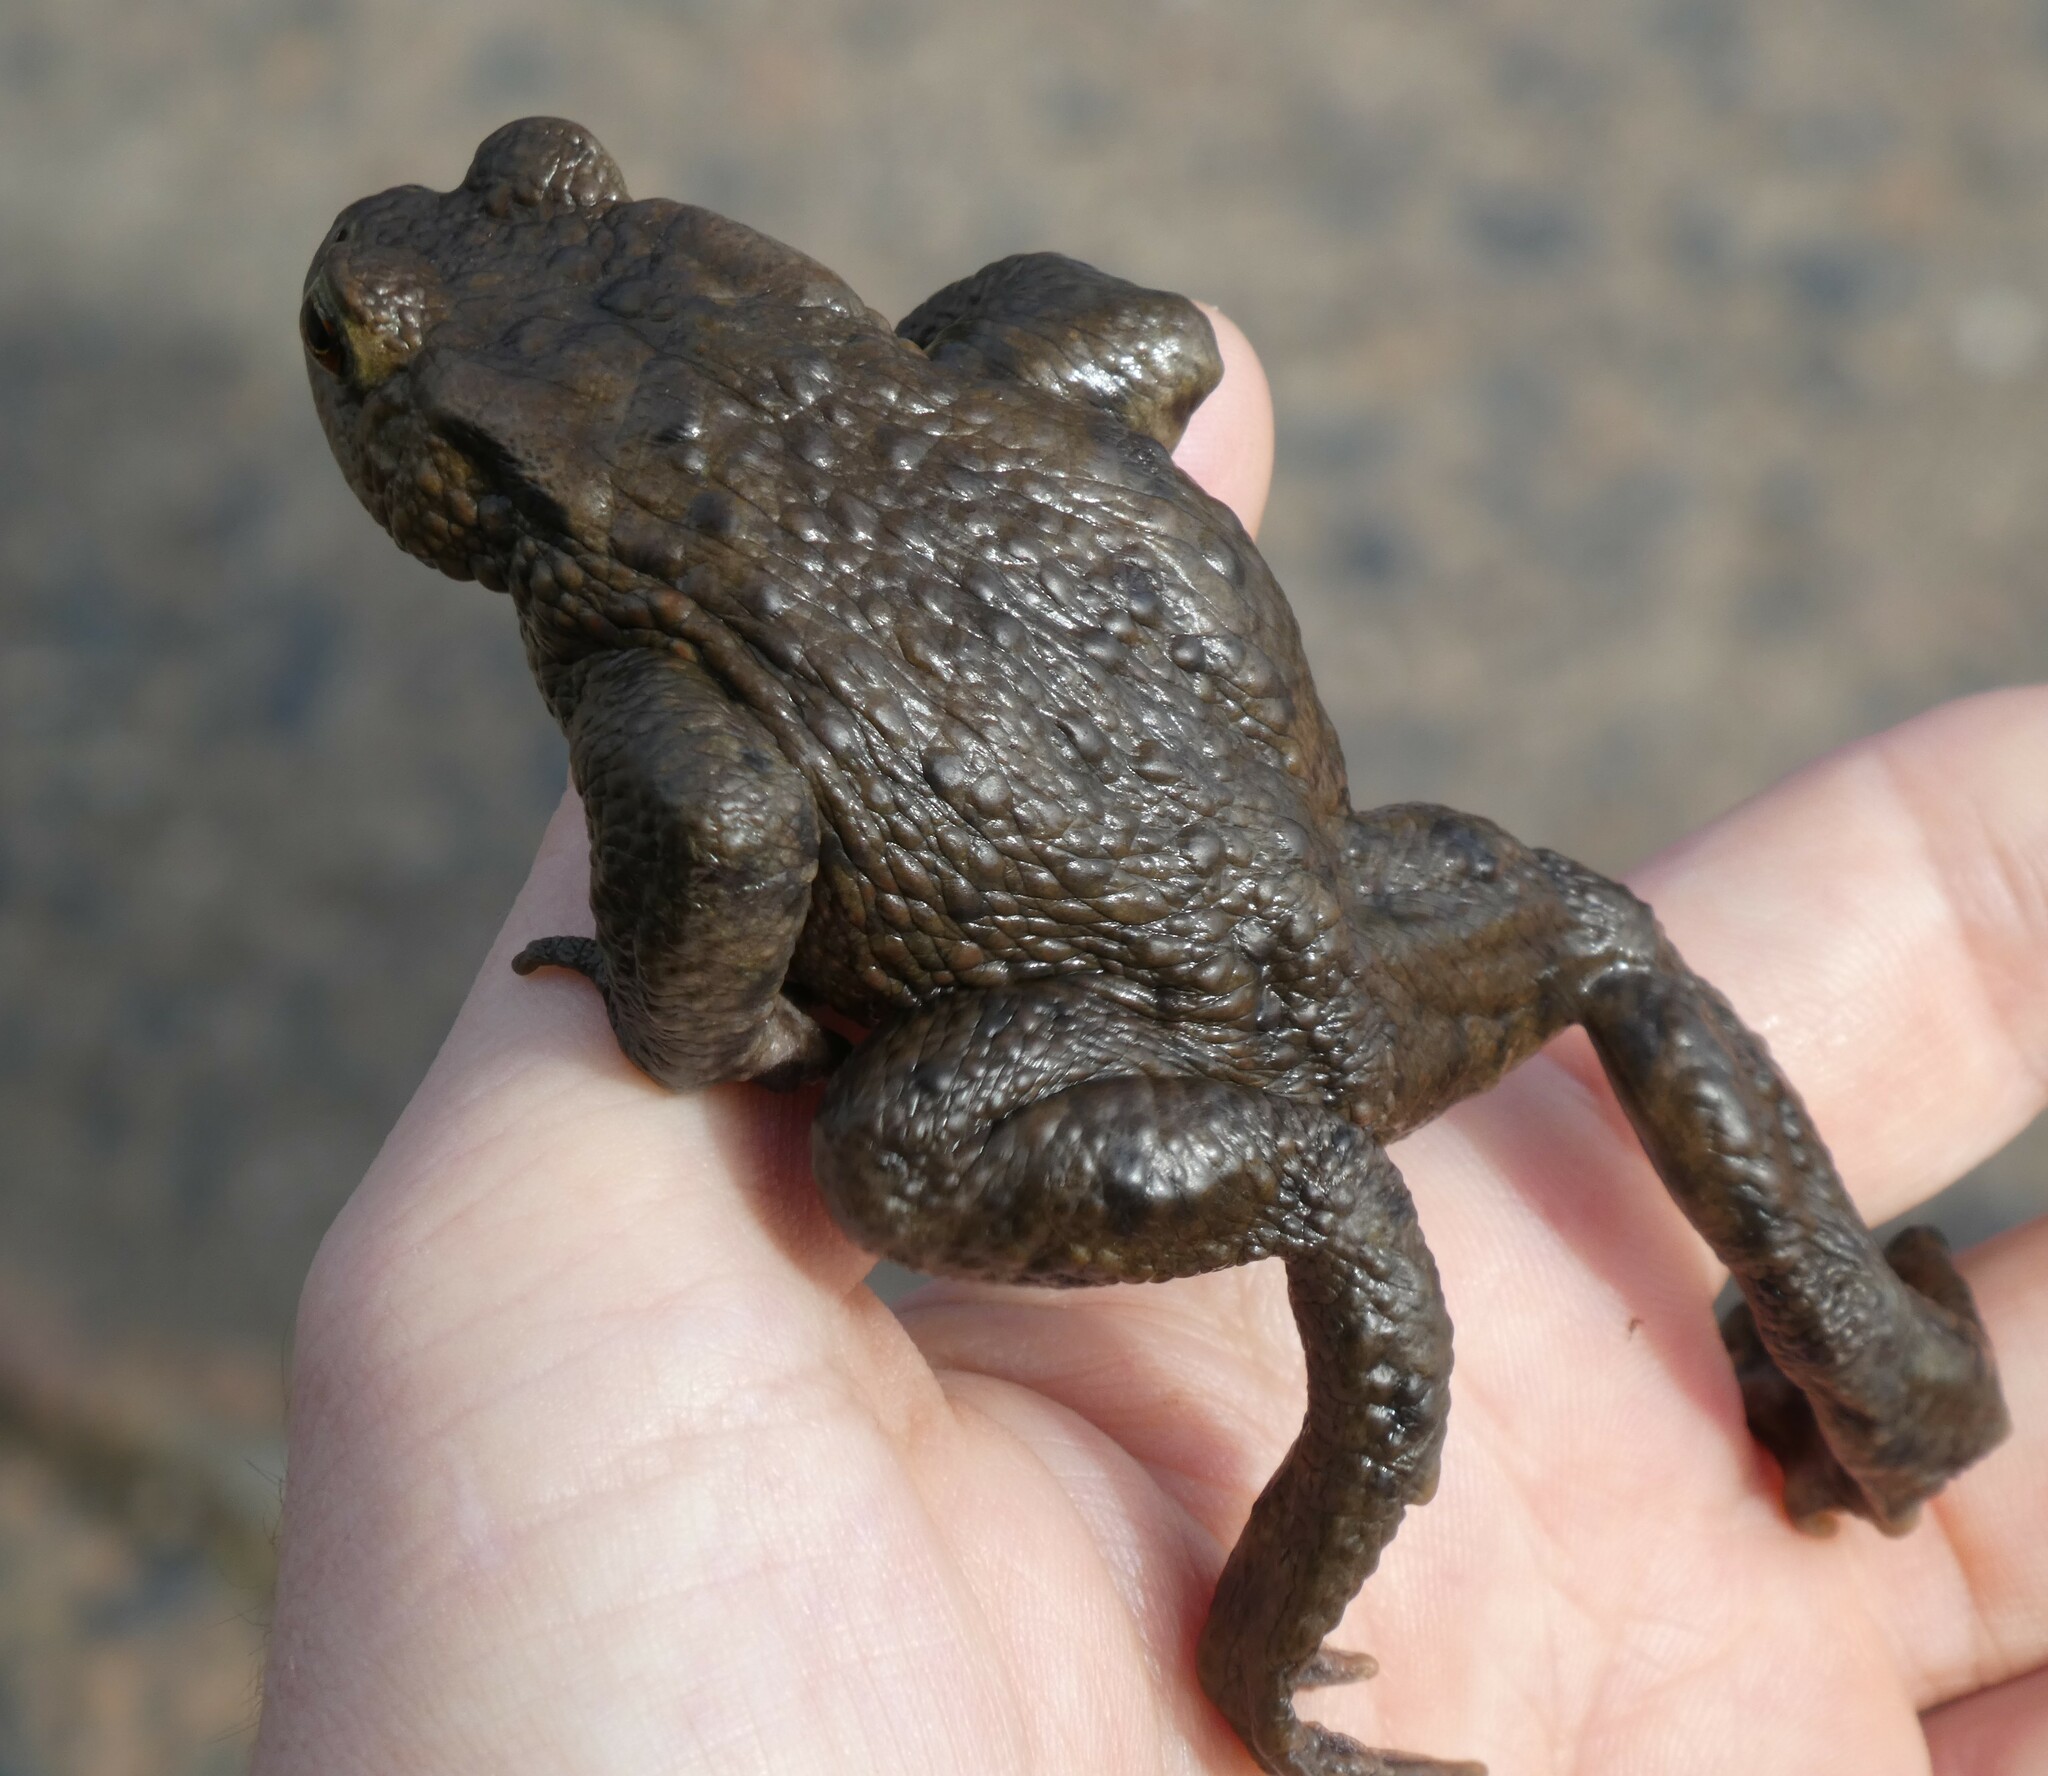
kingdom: Animalia
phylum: Chordata
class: Amphibia
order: Anura
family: Bufonidae
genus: Bufo
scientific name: Bufo bufo
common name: Common toad
